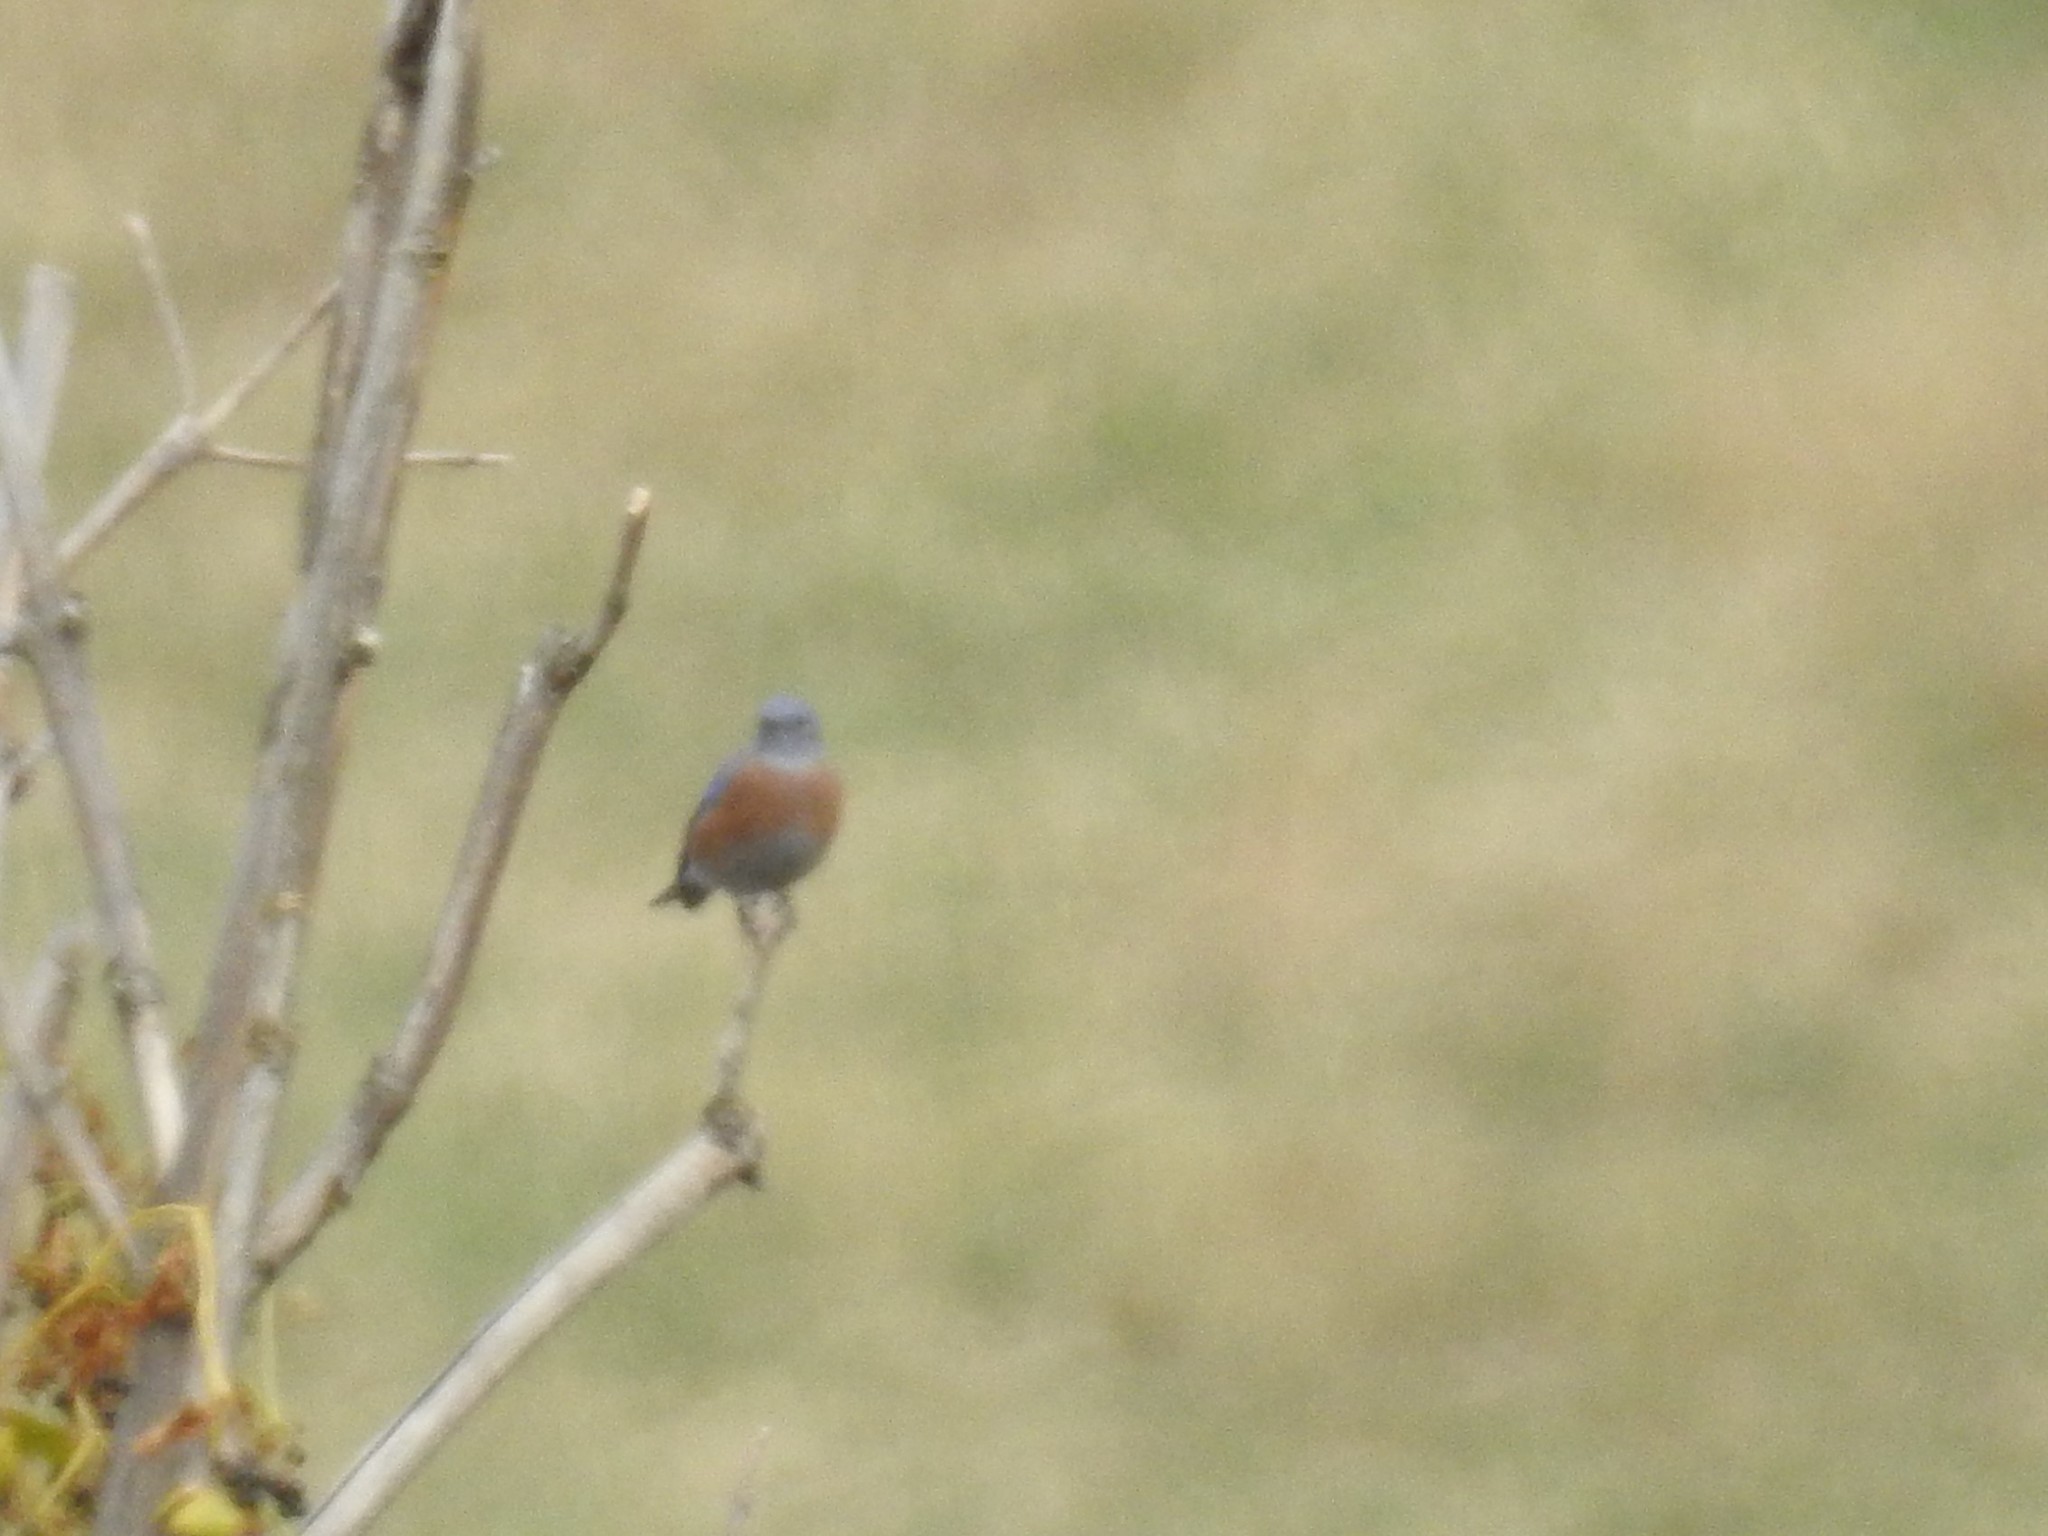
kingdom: Animalia
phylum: Chordata
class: Aves
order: Passeriformes
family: Turdidae
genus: Sialia
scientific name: Sialia mexicana
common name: Western bluebird
